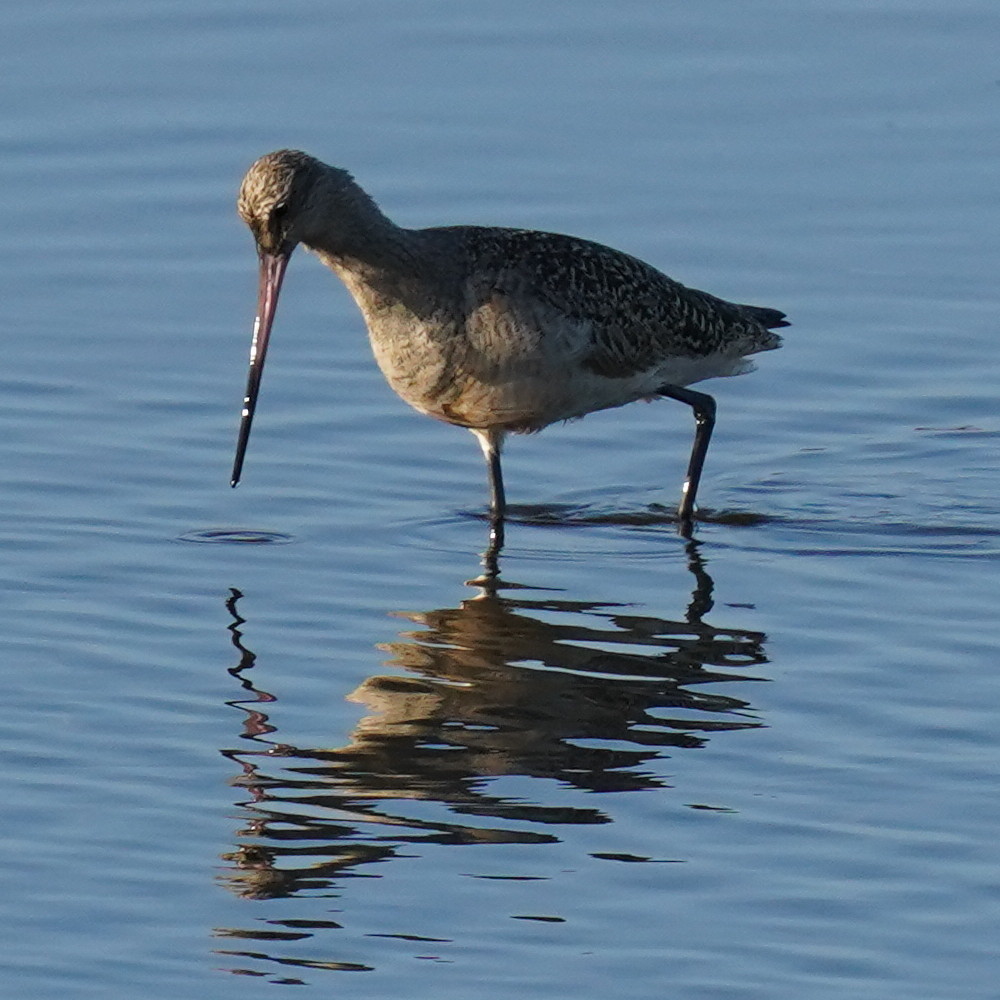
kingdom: Animalia
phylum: Chordata
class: Aves
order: Charadriiformes
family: Scolopacidae
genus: Limosa
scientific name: Limosa fedoa
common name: Marbled godwit
